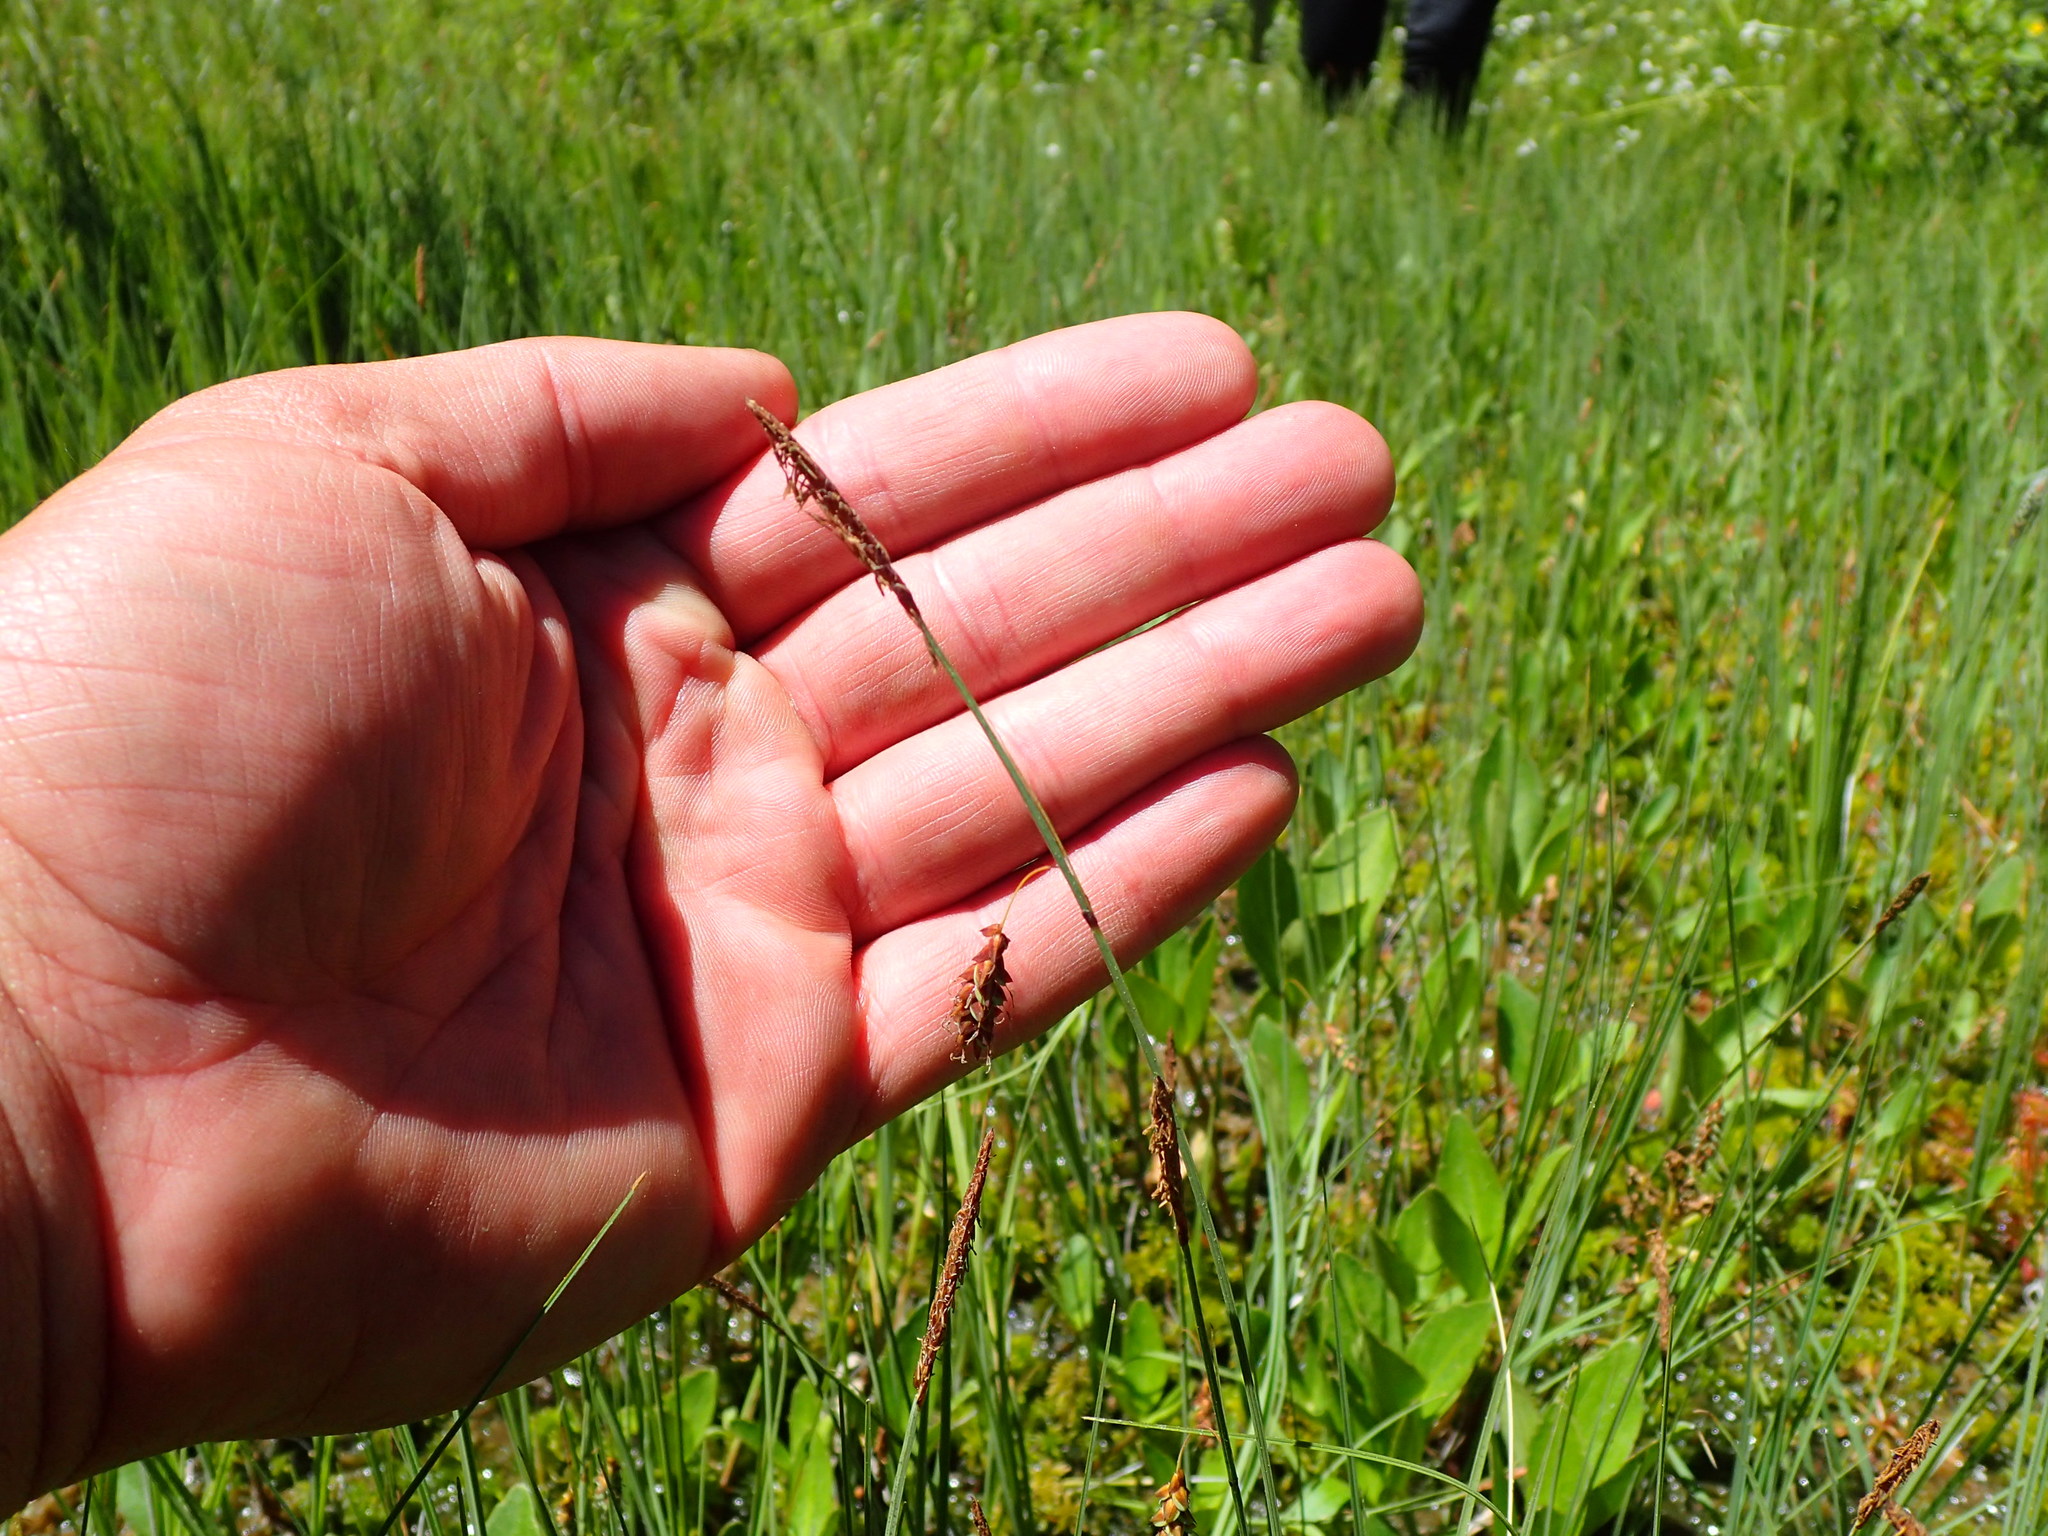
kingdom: Plantae
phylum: Tracheophyta
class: Liliopsida
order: Poales
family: Cyperaceae
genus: Carex
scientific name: Carex limosa
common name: Bog sedge
